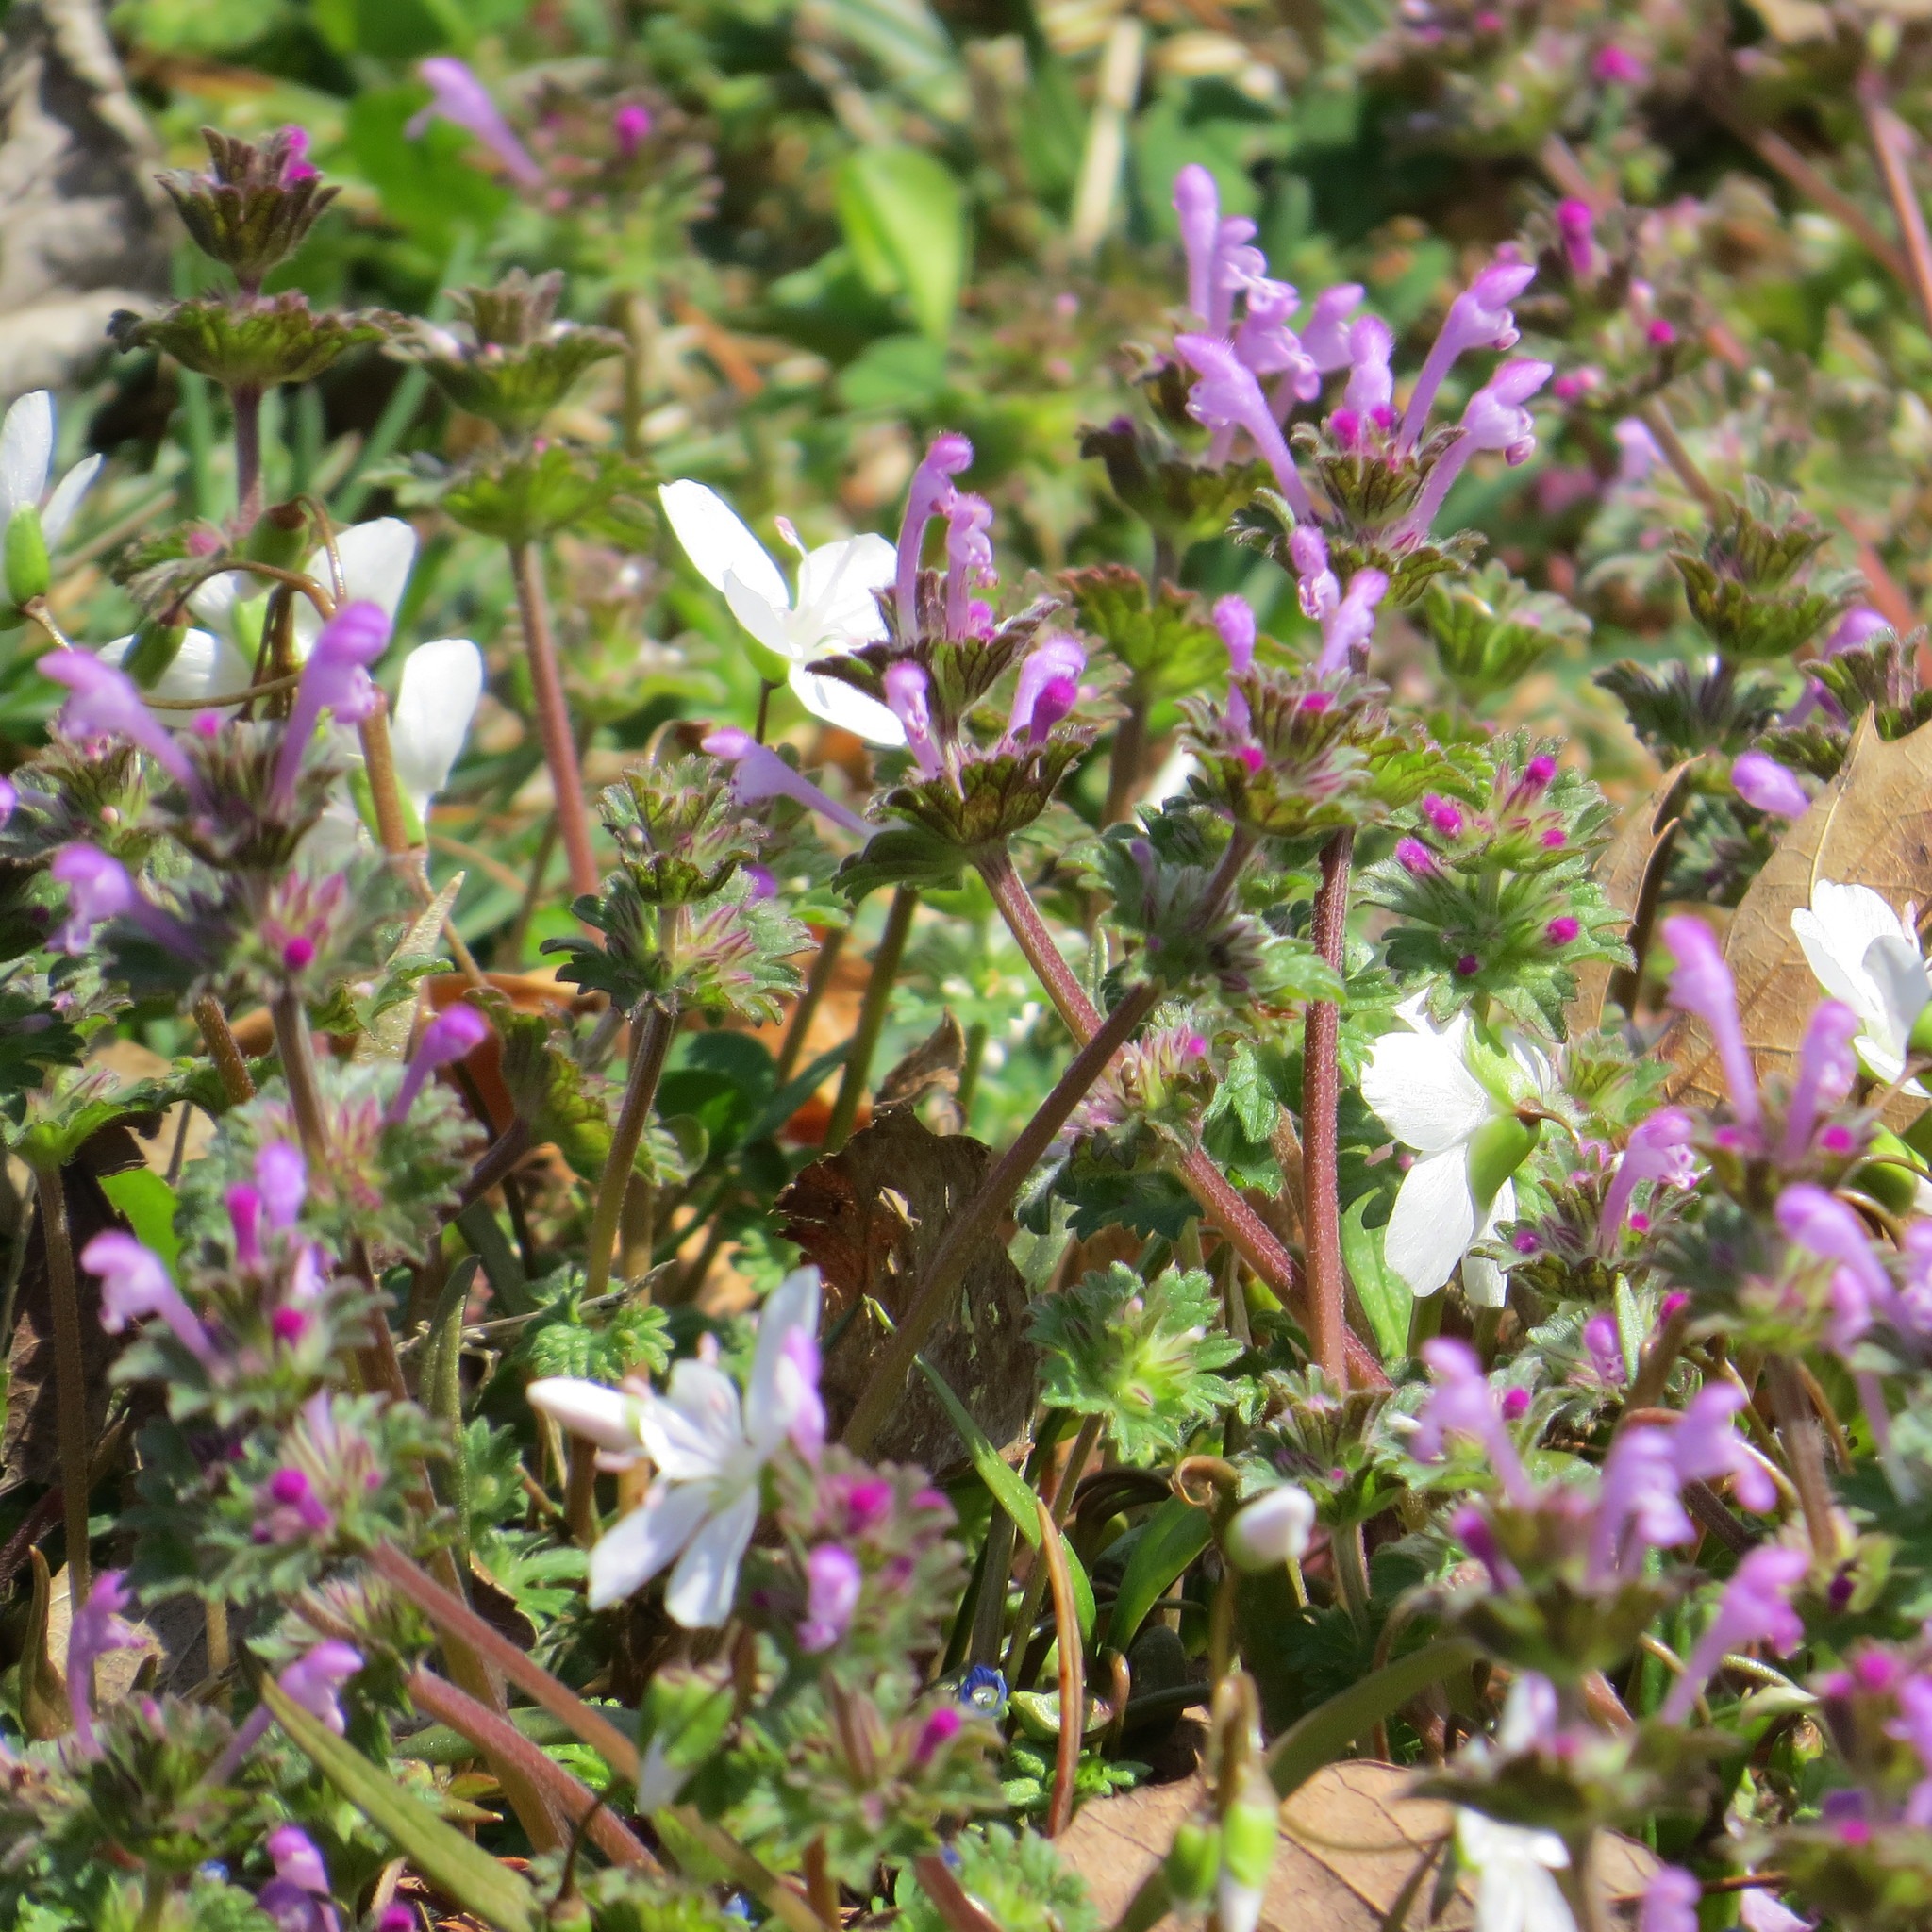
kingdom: Plantae
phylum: Tracheophyta
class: Magnoliopsida
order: Lamiales
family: Lamiaceae
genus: Lamium
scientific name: Lamium amplexicaule
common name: Henbit dead-nettle
